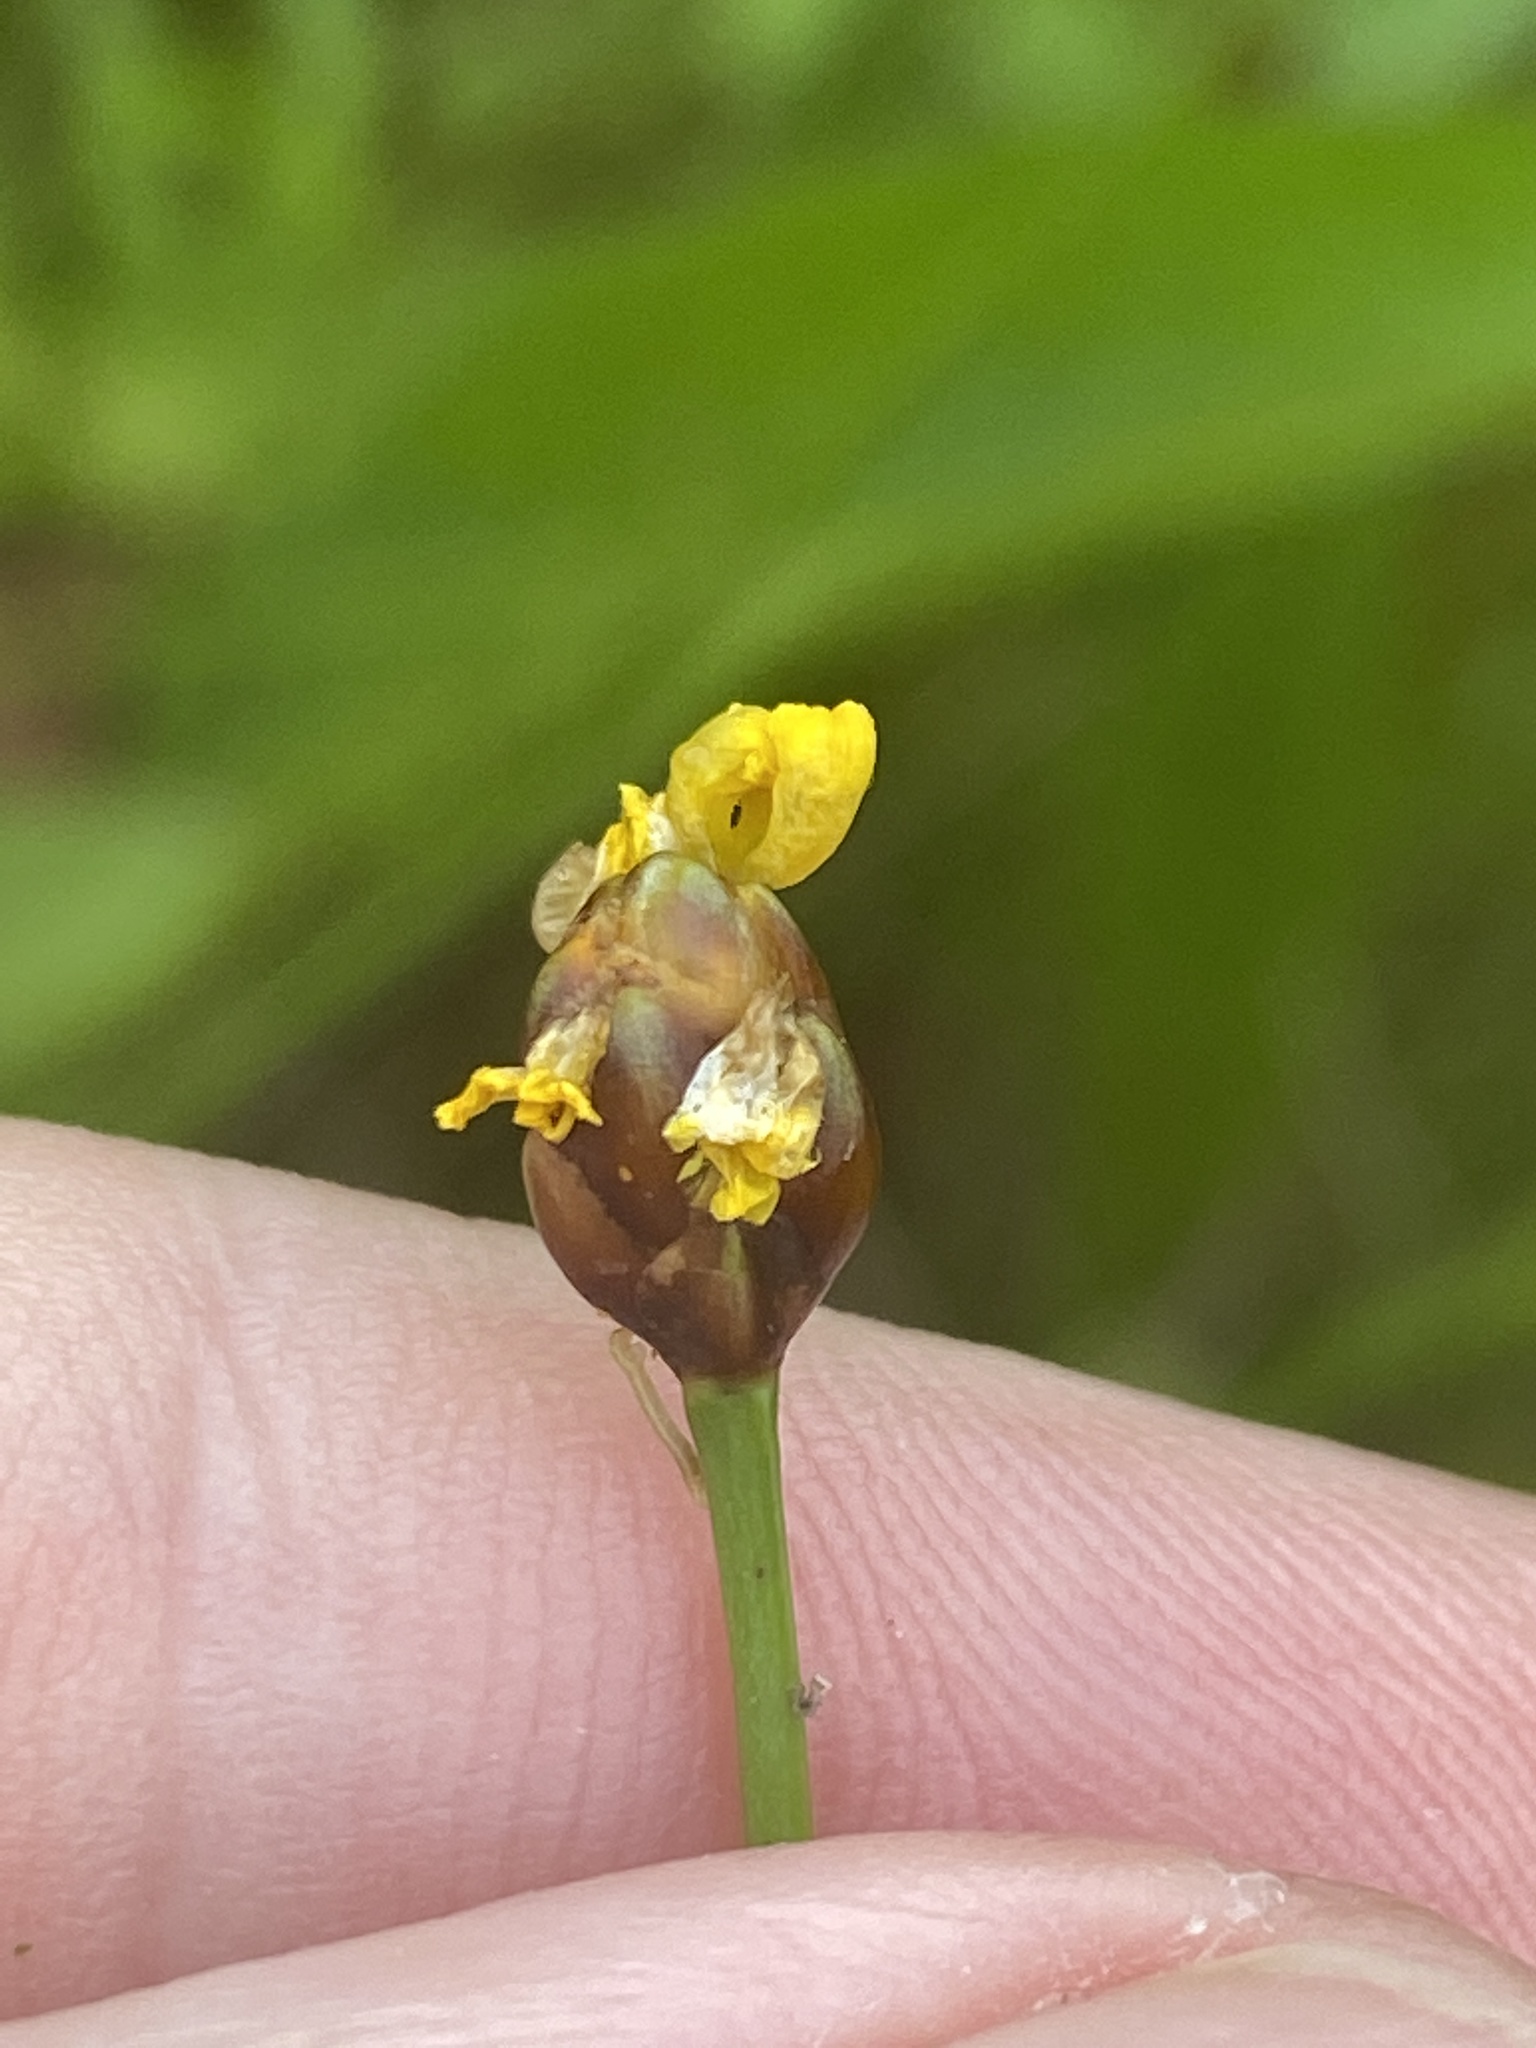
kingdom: Plantae
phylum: Tracheophyta
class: Liliopsida
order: Poales
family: Xyridaceae
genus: Xyris
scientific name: Xyris torta
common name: Common yelloweyed grass
